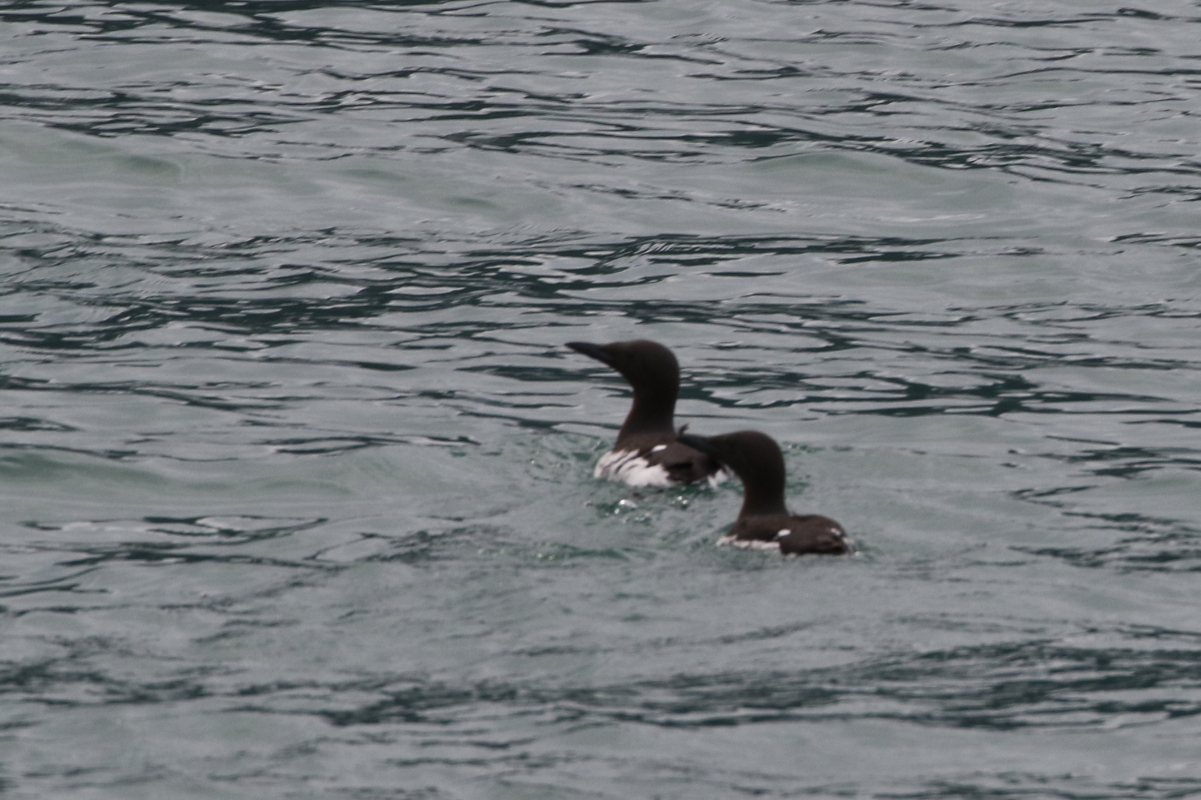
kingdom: Animalia
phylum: Chordata
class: Aves
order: Charadriiformes
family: Alcidae
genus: Uria
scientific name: Uria aalge
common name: Common murre
